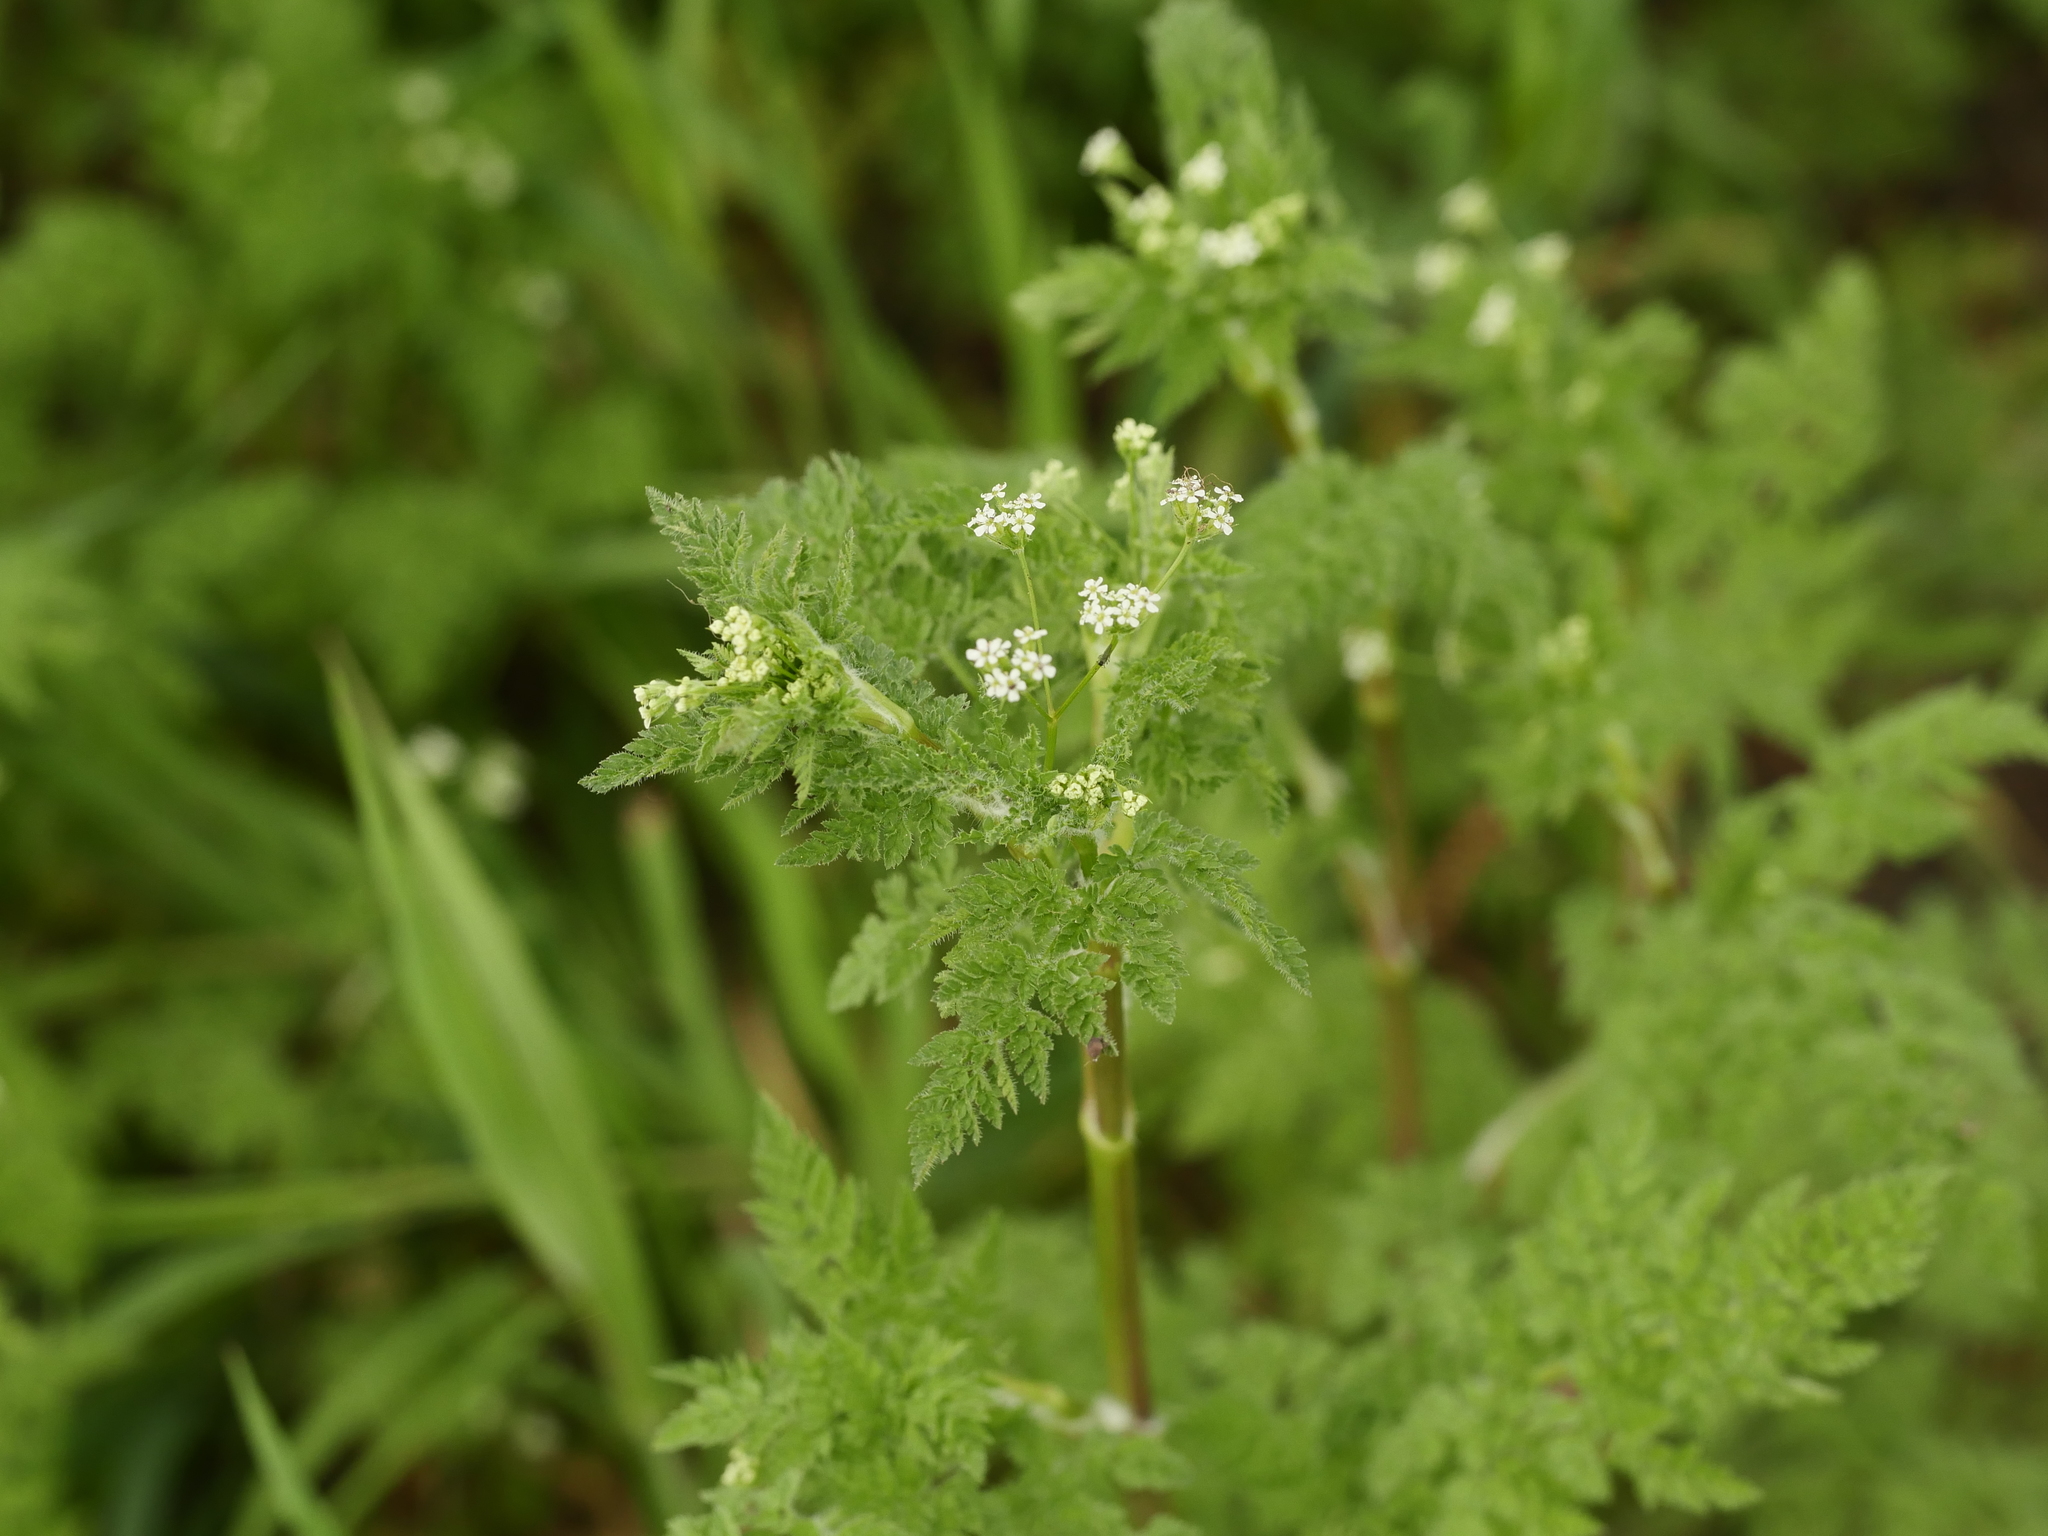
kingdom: Plantae
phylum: Tracheophyta
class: Magnoliopsida
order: Apiales
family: Apiaceae
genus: Anthriscus
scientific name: Anthriscus caucalis
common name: Bur chervil
